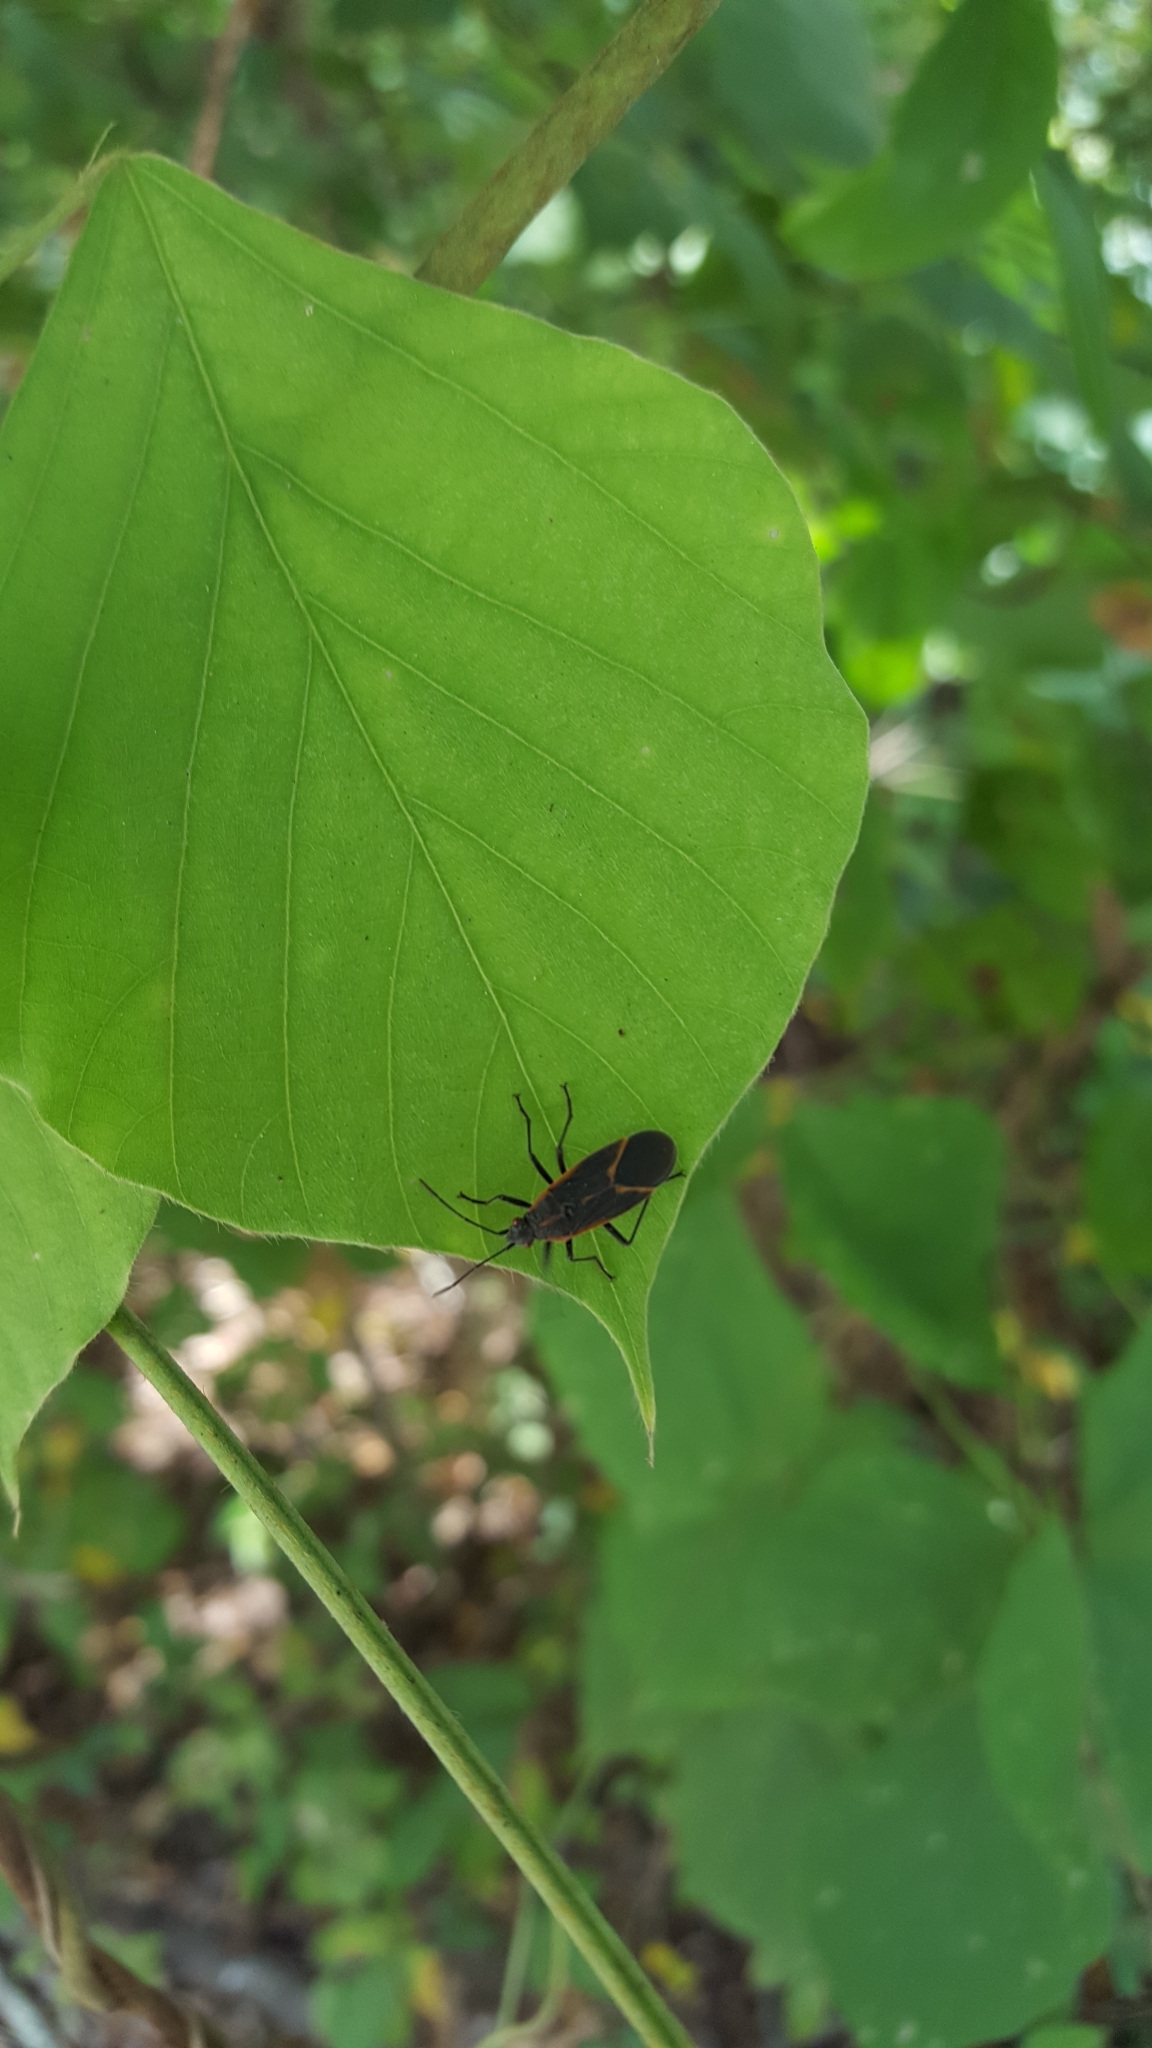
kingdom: Animalia
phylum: Arthropoda
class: Insecta
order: Hemiptera
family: Rhopalidae
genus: Boisea
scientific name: Boisea trivittata
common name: Boxelder bug
